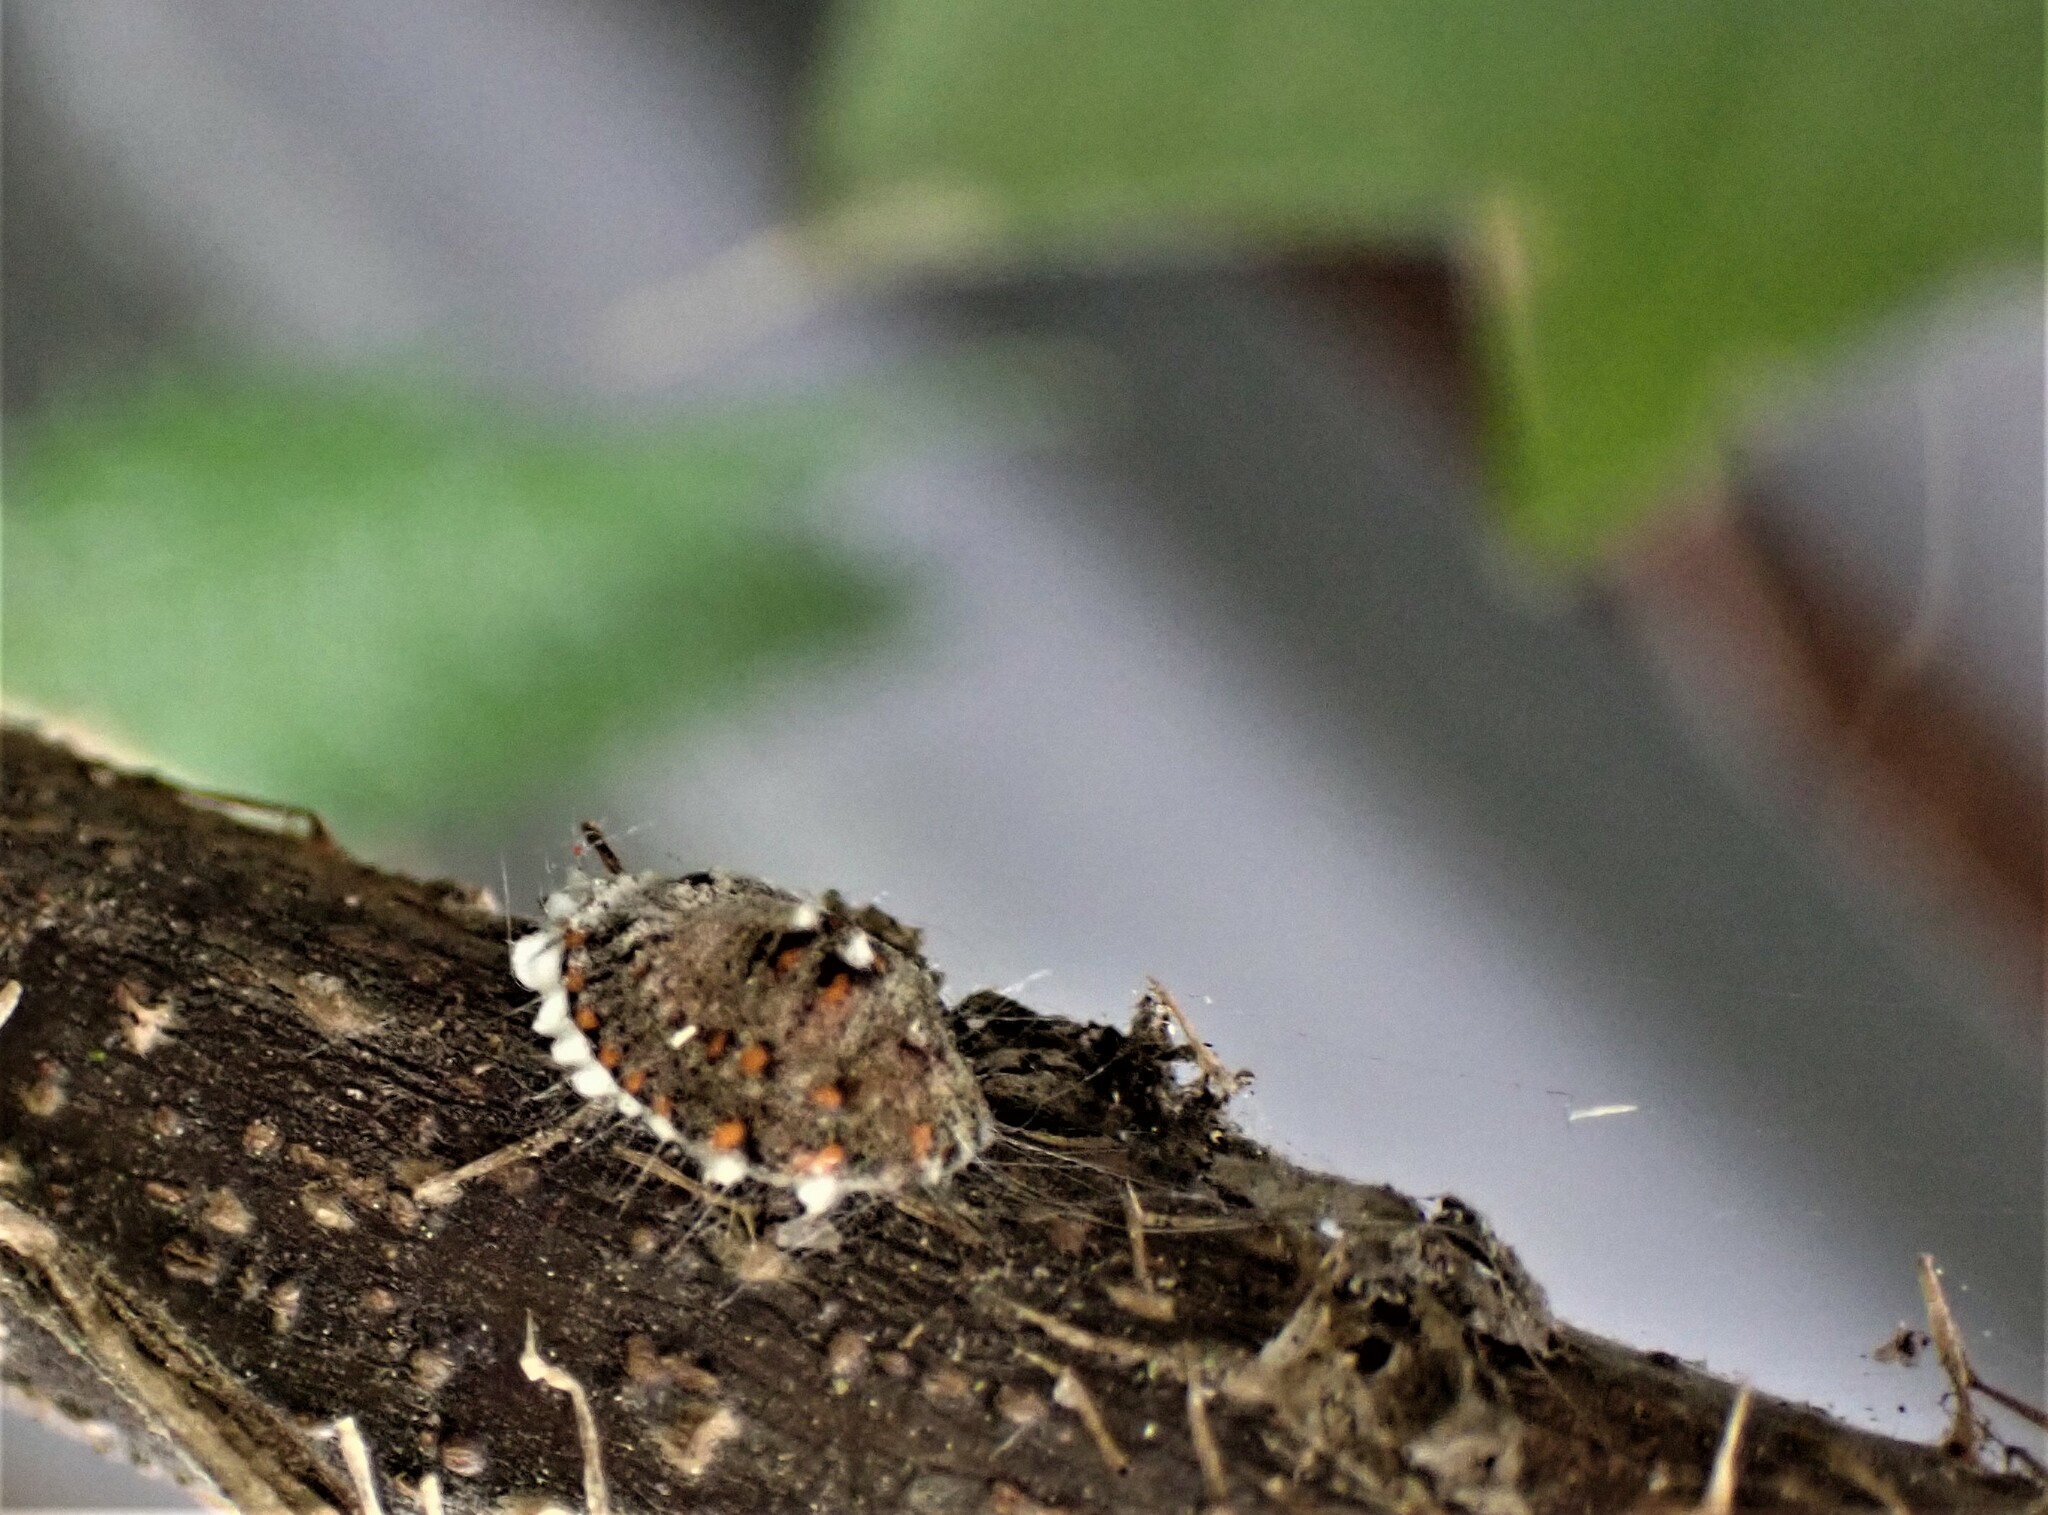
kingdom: Animalia
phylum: Arthropoda
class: Insecta
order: Hemiptera
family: Margarodidae
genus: Icerya
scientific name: Icerya purchasi
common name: Cottony cushion scale
